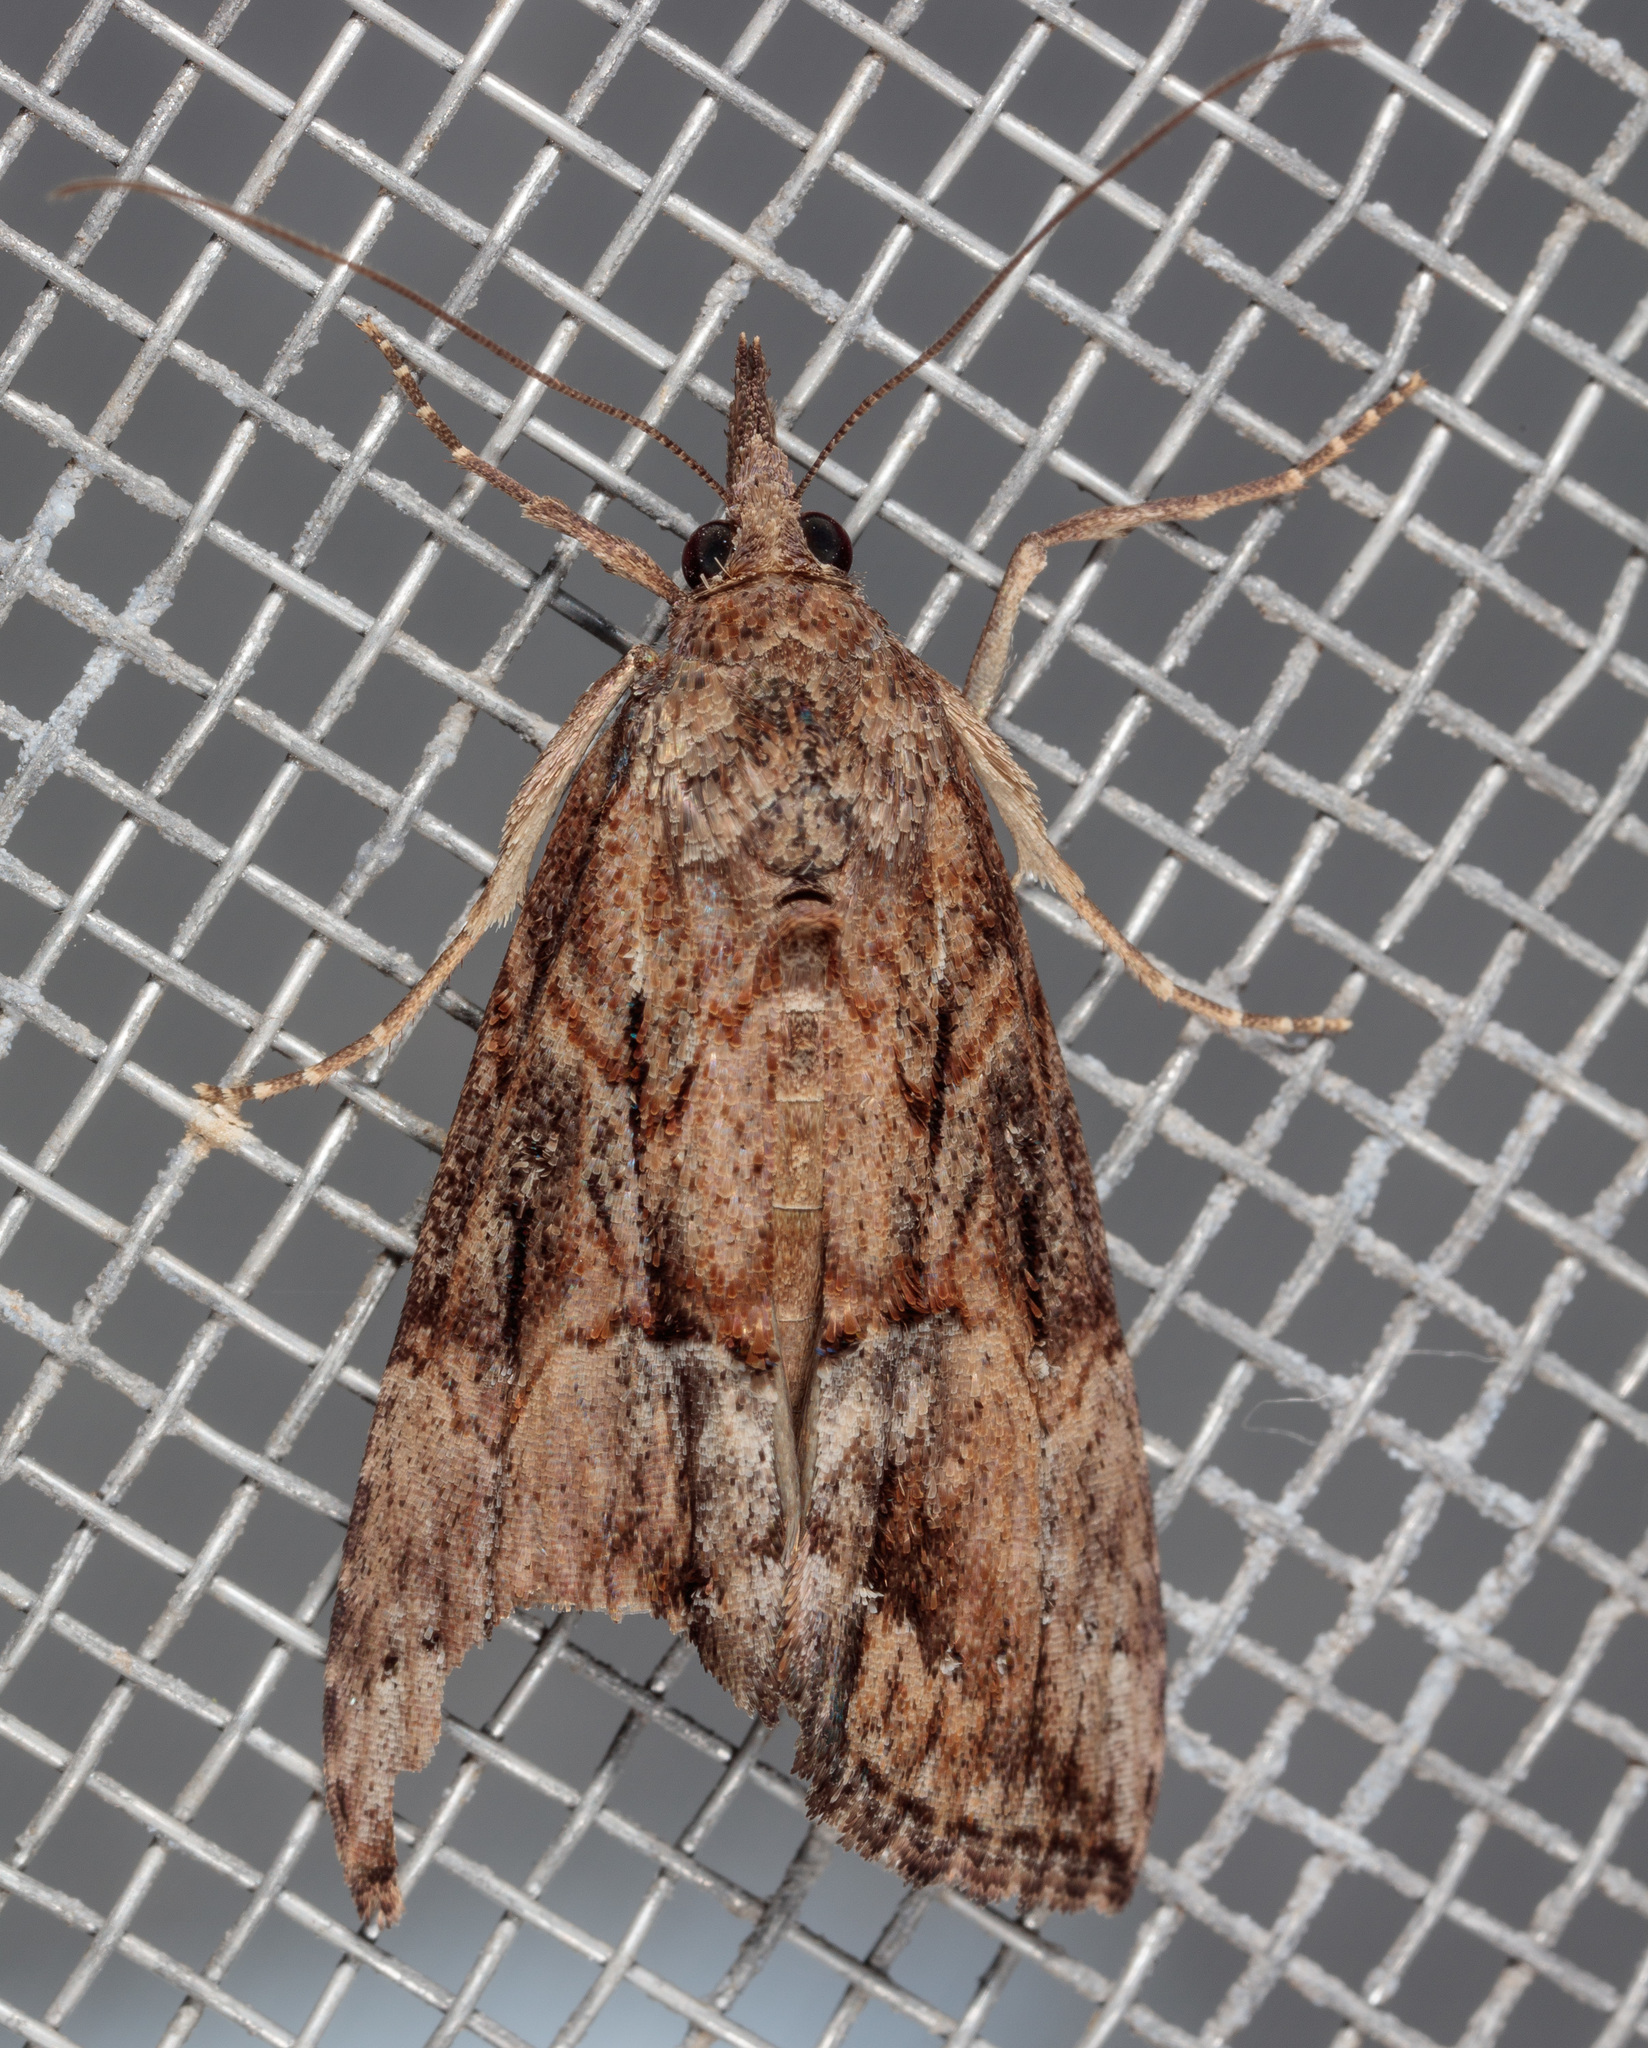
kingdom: Animalia
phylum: Arthropoda
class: Insecta
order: Lepidoptera
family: Erebidae
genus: Hypena
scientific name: Hypena scabra
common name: Green cloverworm
